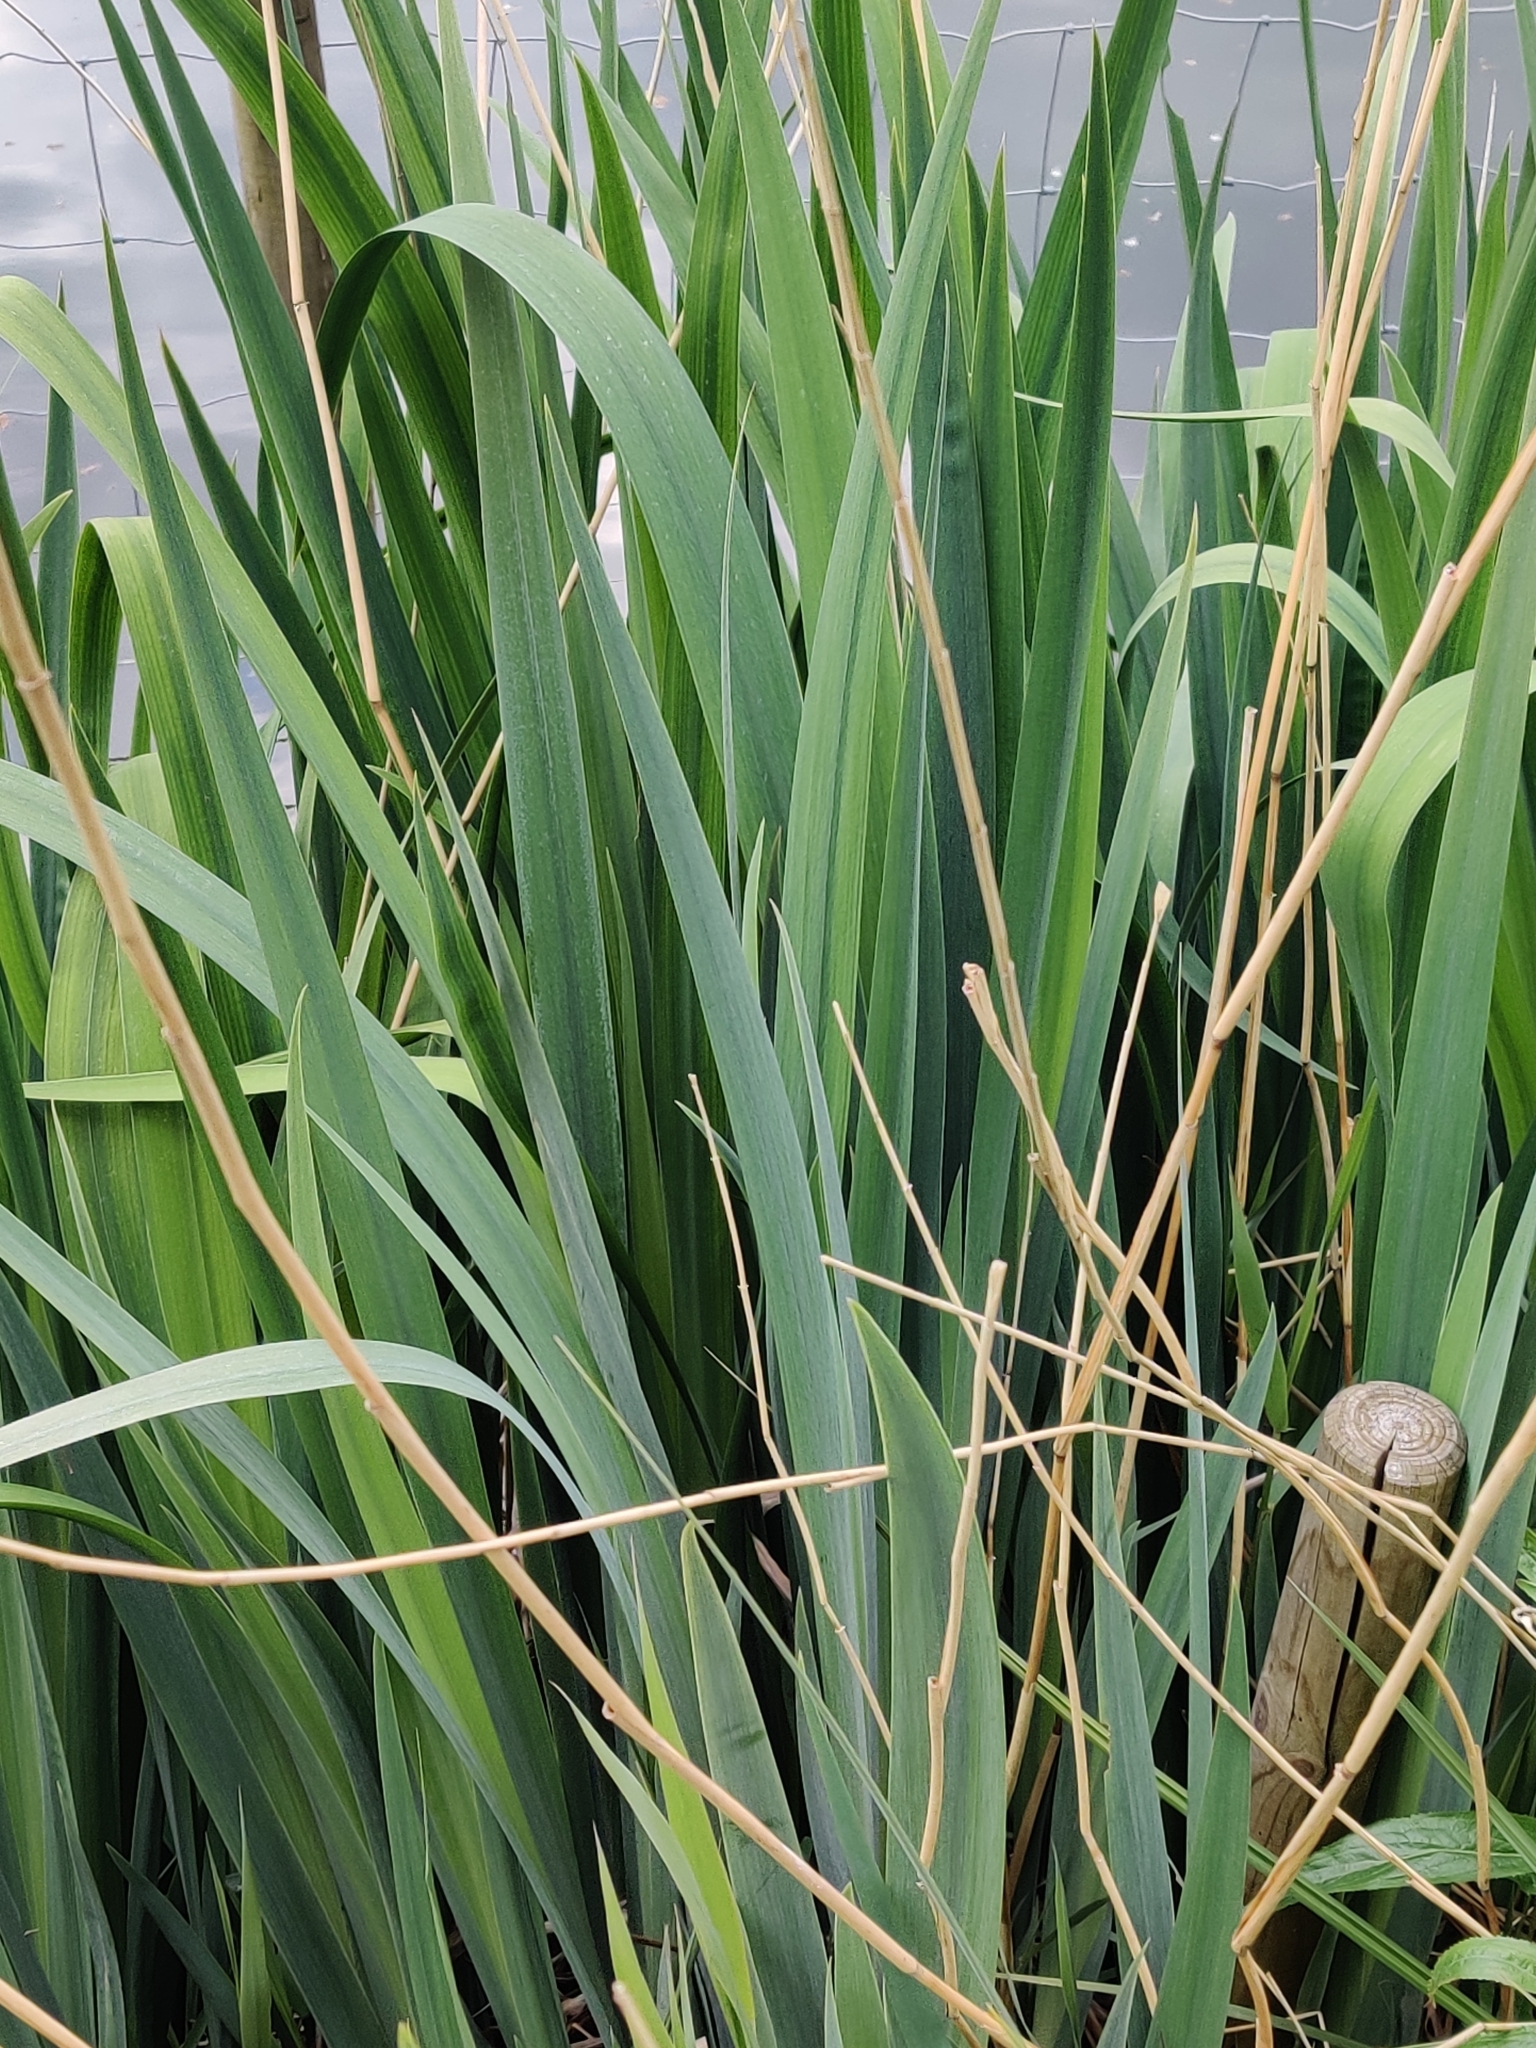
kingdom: Plantae
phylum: Tracheophyta
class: Liliopsida
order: Asparagales
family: Iridaceae
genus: Iris
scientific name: Iris pseudacorus
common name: Yellow flag
